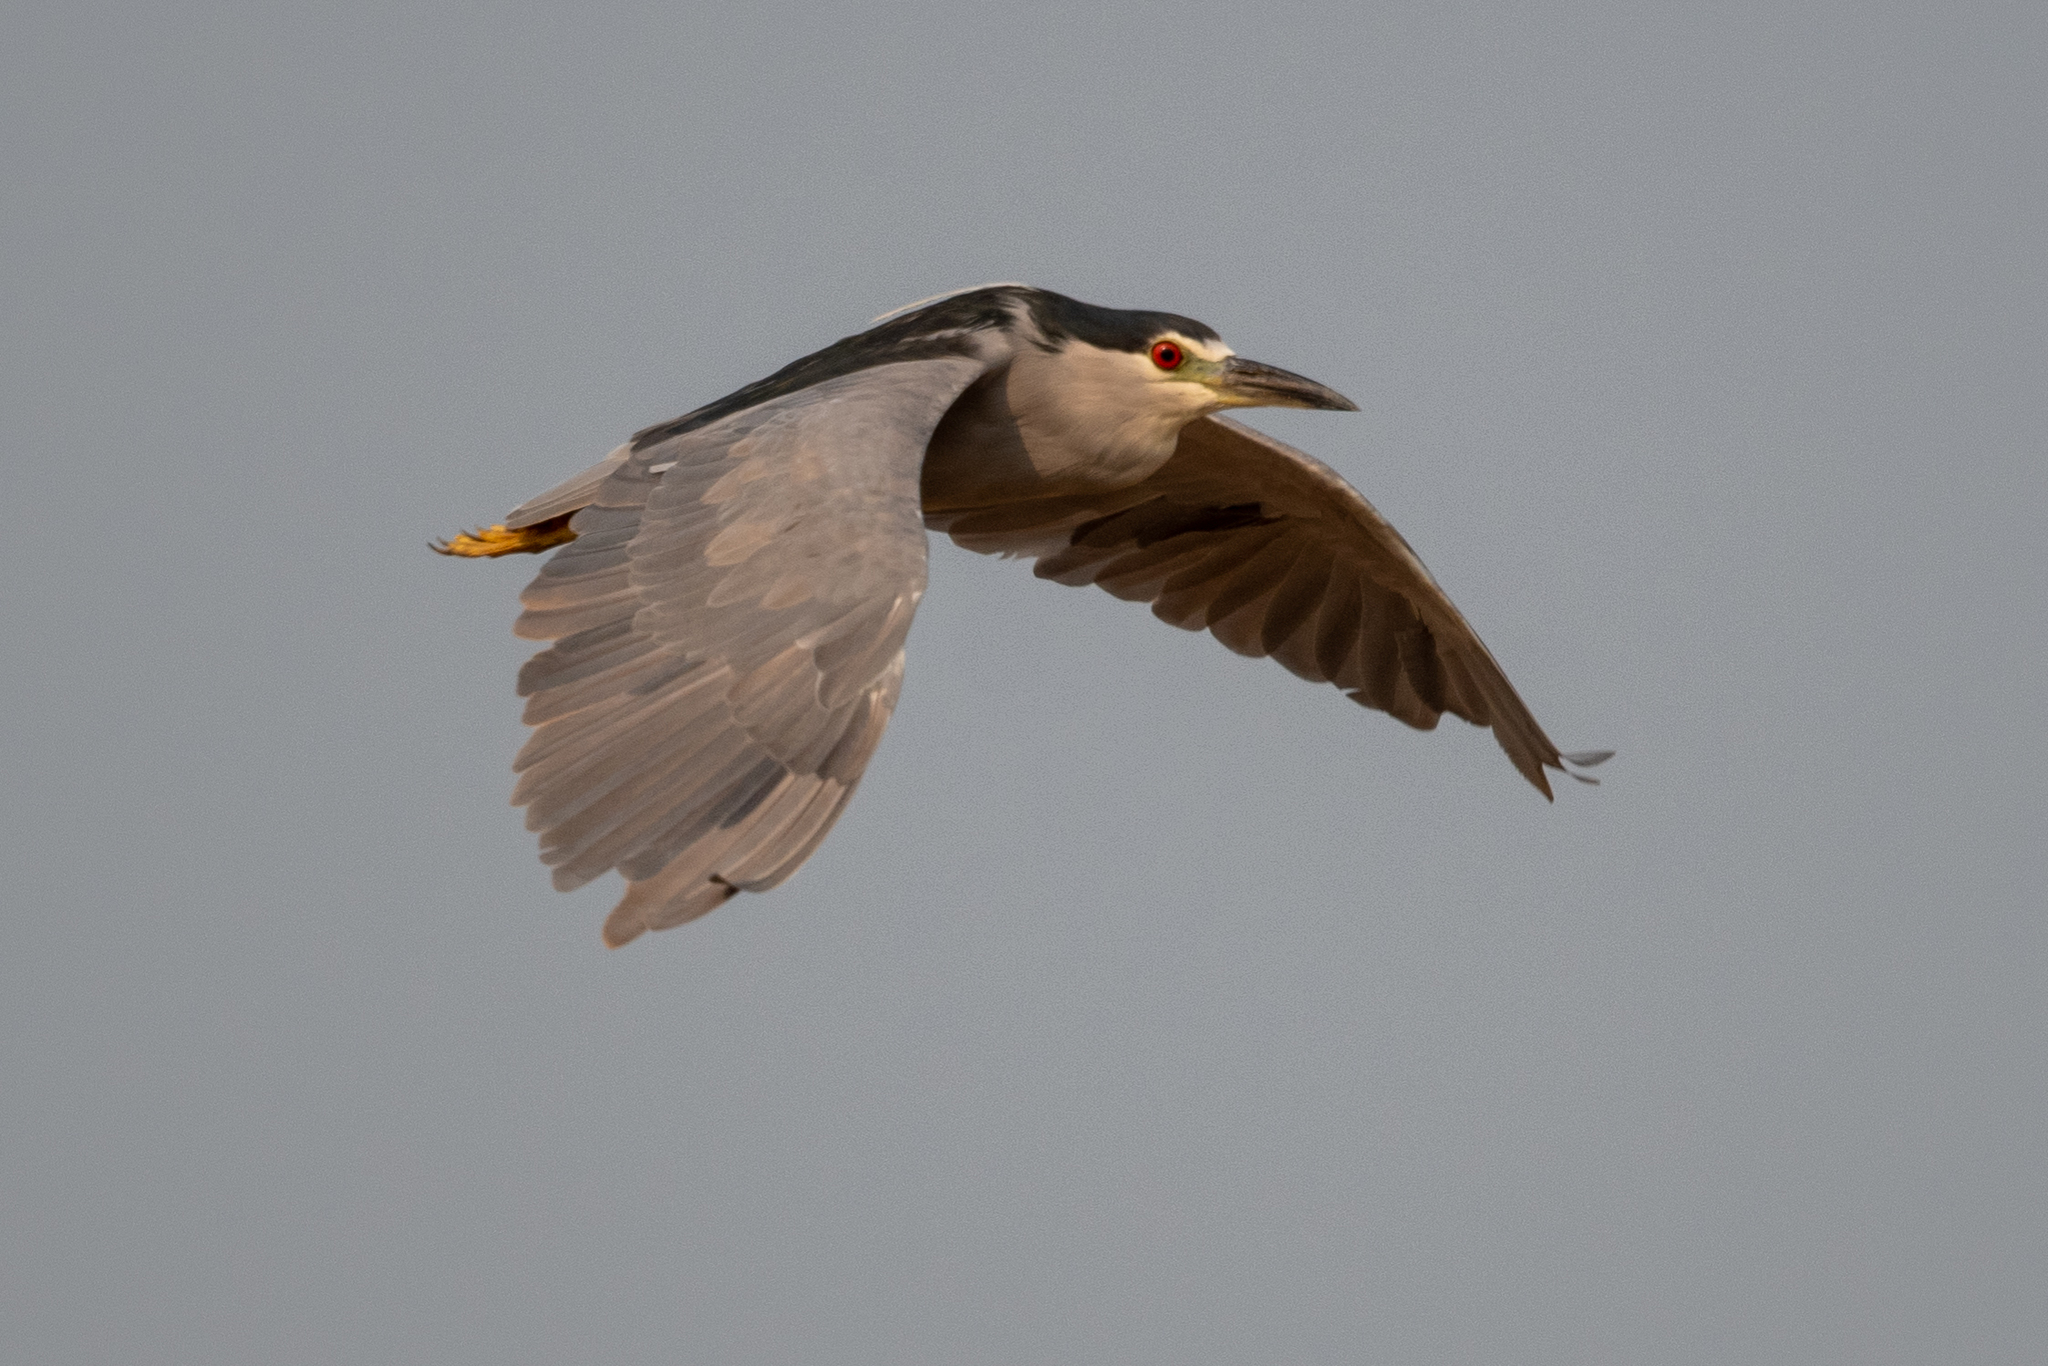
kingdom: Animalia
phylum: Chordata
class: Aves
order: Pelecaniformes
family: Ardeidae
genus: Nycticorax
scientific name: Nycticorax nycticorax
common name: Black-crowned night heron
